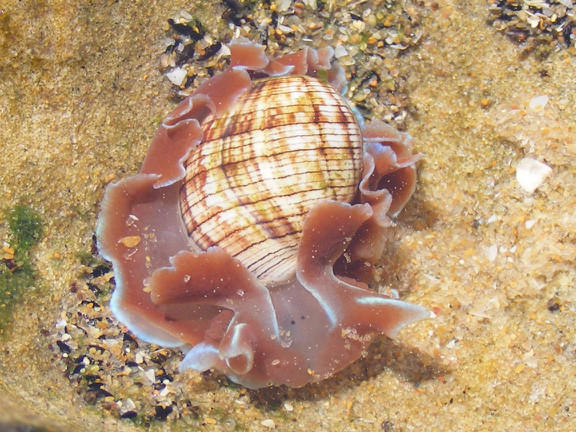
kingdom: Animalia
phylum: Mollusca
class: Gastropoda
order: Cephalaspidea
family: Aplustridae
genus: Hydatina
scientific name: Hydatina physis
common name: Brown-line paperbubble
